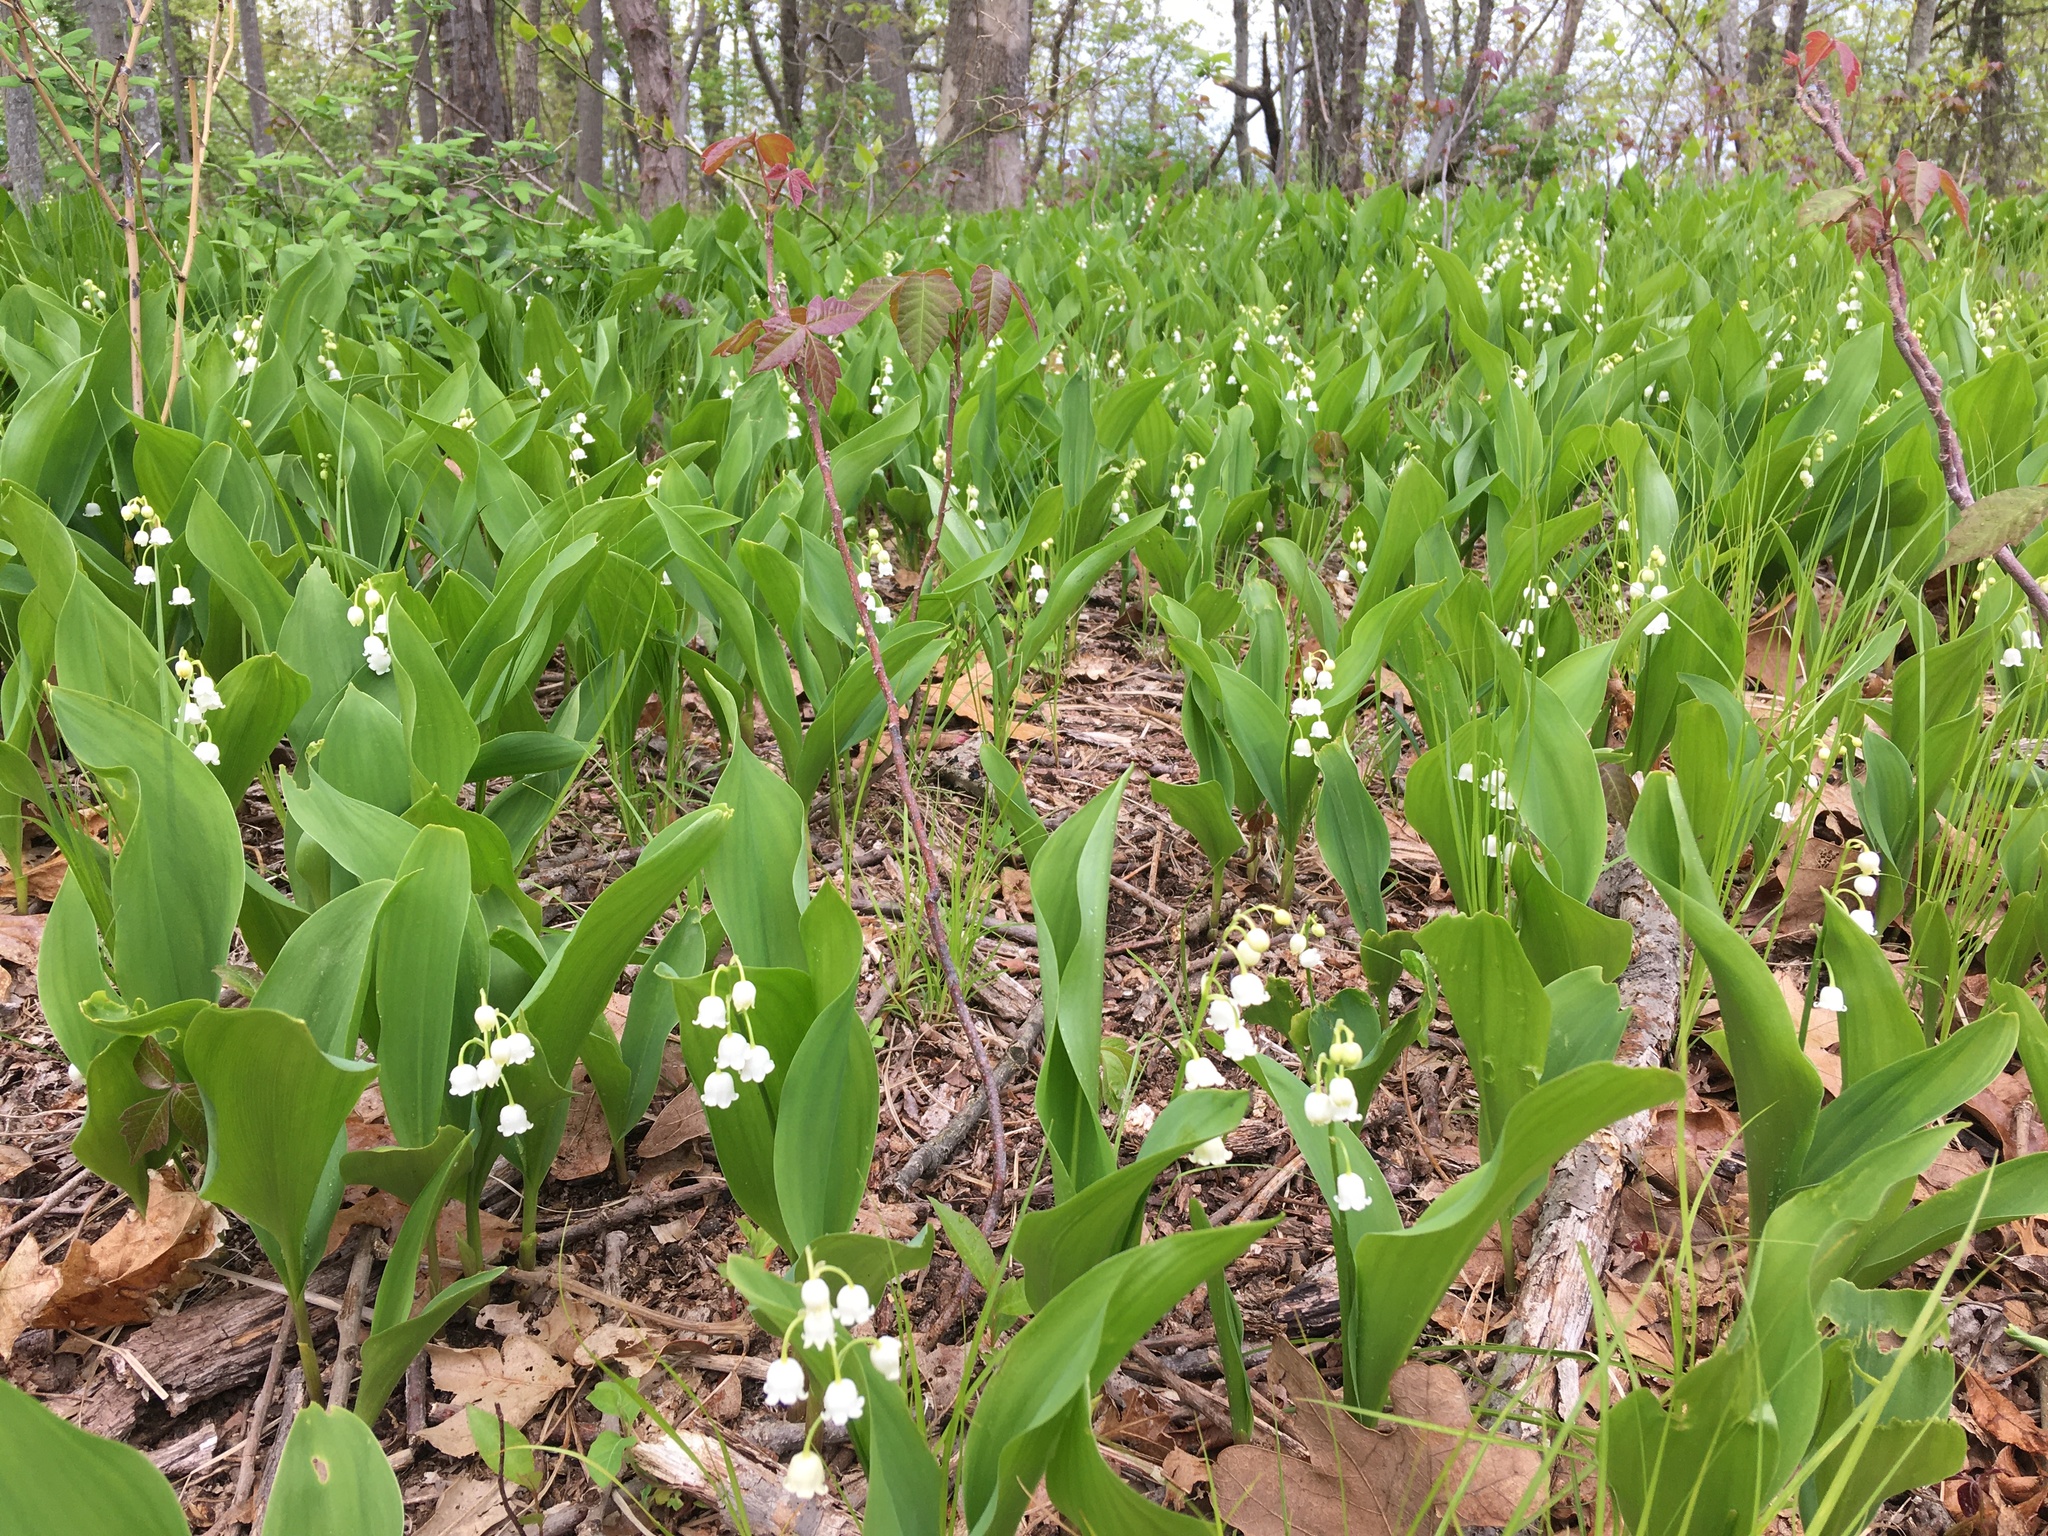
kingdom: Plantae
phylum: Tracheophyta
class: Liliopsida
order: Asparagales
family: Asparagaceae
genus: Convallaria
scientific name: Convallaria majalis
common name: Lily-of-the-valley
